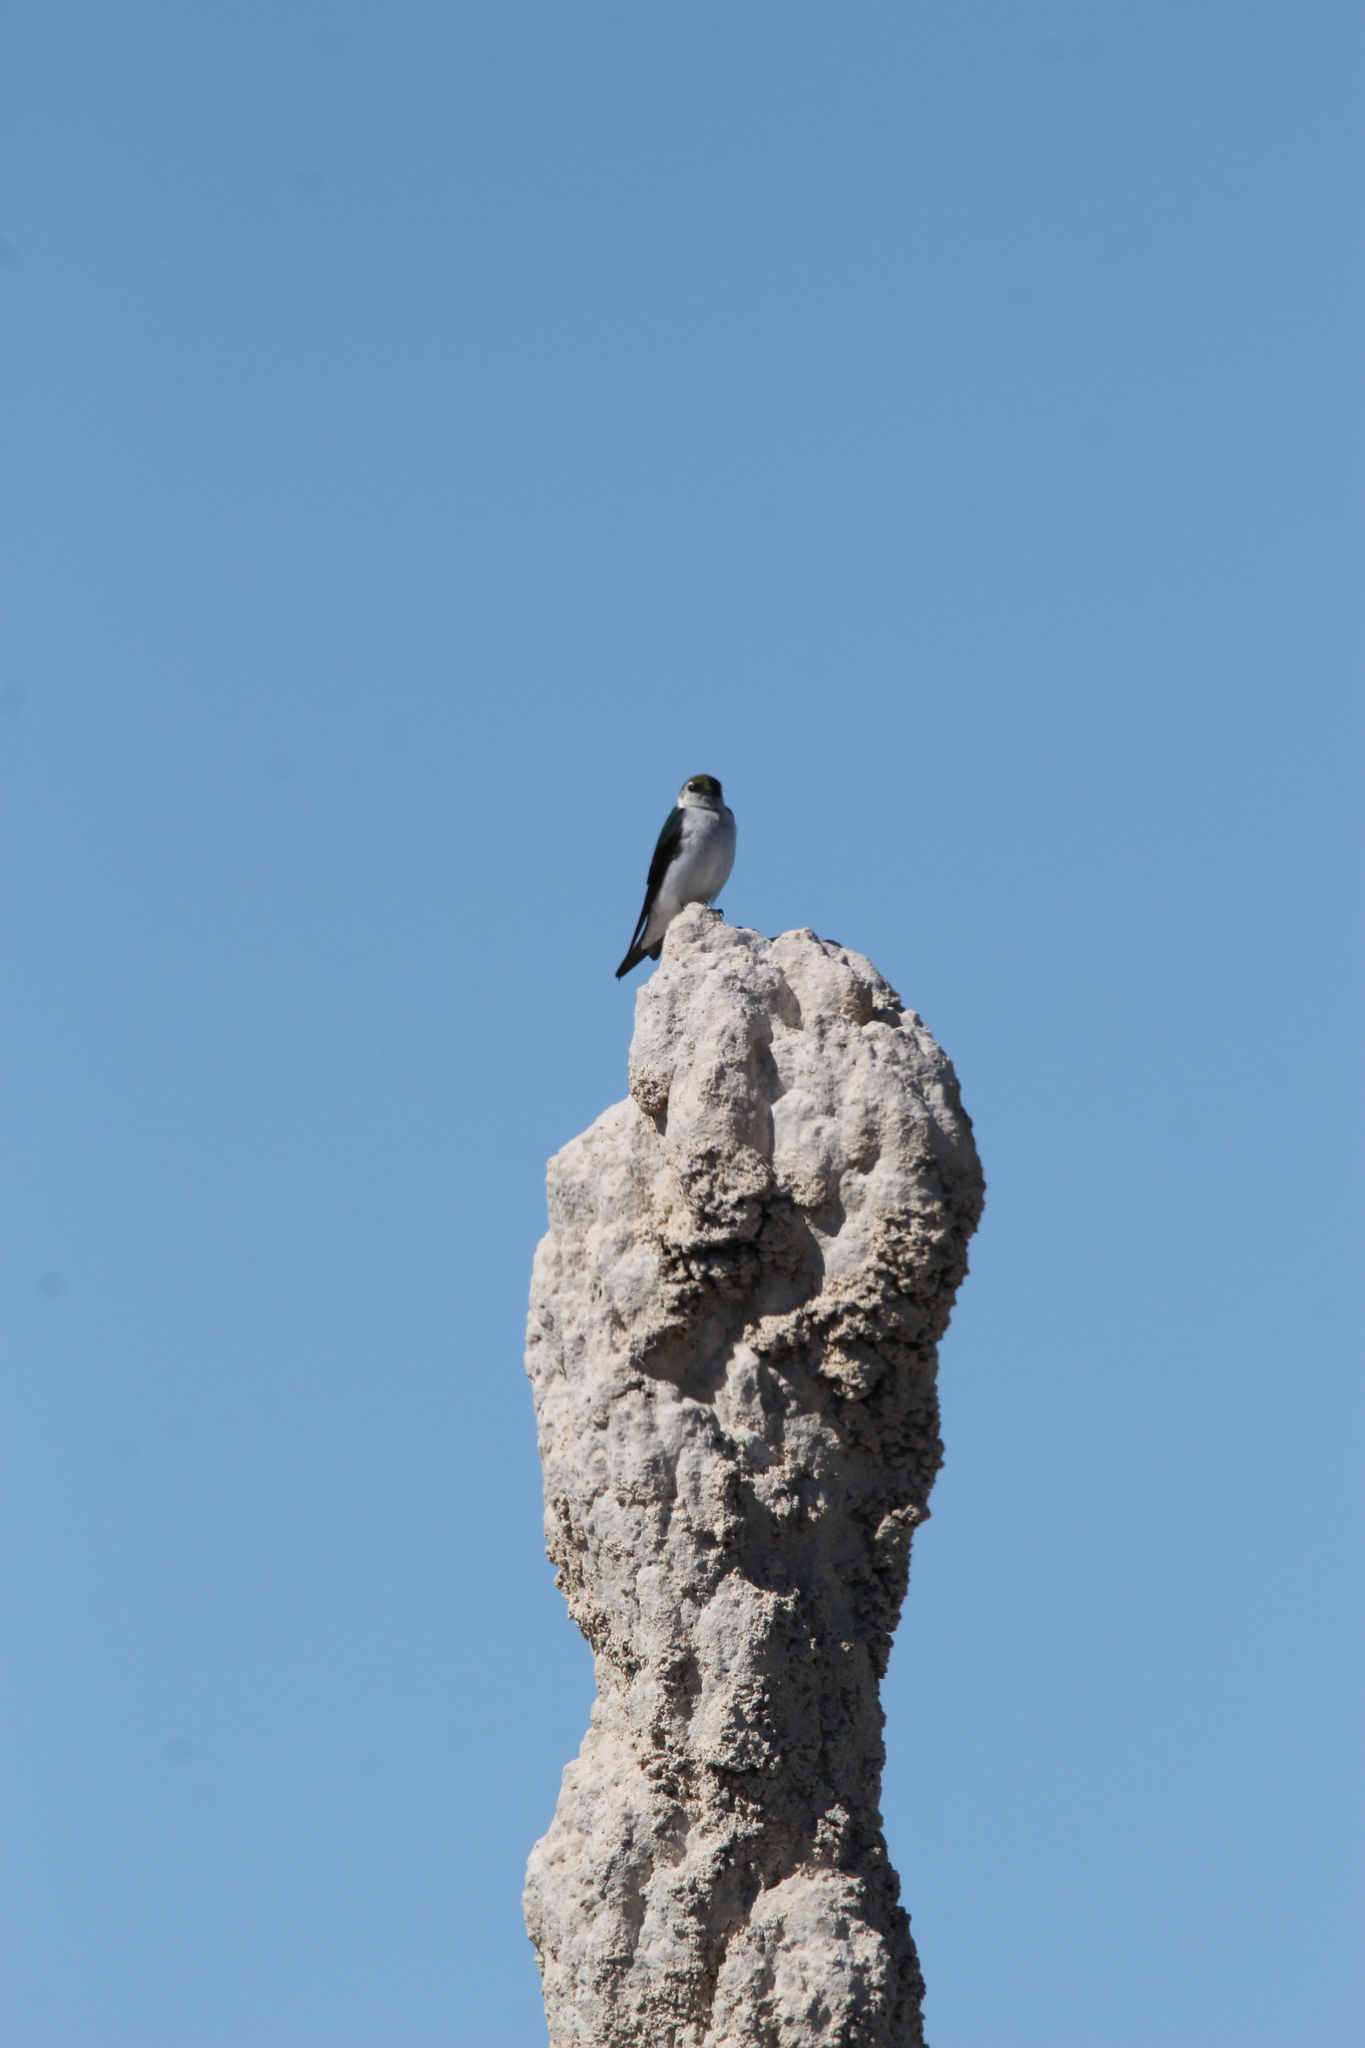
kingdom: Animalia
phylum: Chordata
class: Aves
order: Passeriformes
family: Hirundinidae
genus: Tachycineta
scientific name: Tachycineta thalassina
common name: Violet-green swallow
